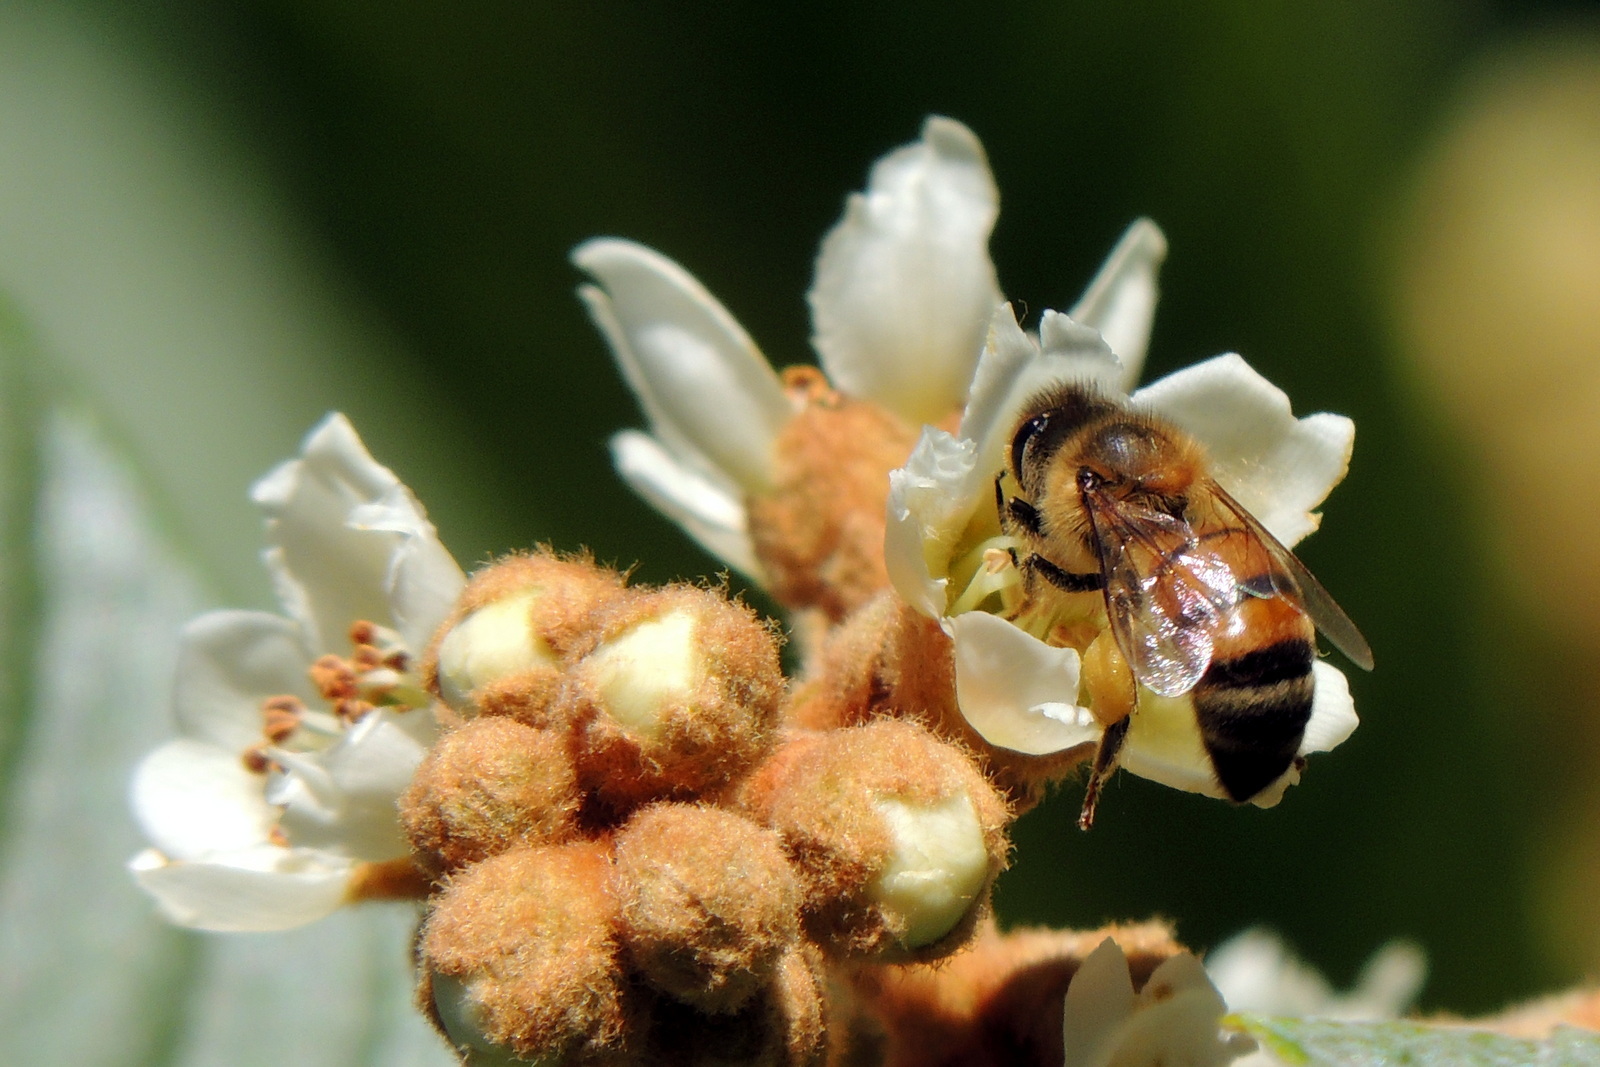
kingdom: Animalia
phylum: Arthropoda
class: Insecta
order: Hymenoptera
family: Apidae
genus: Apis
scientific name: Apis mellifera
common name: Honey bee
